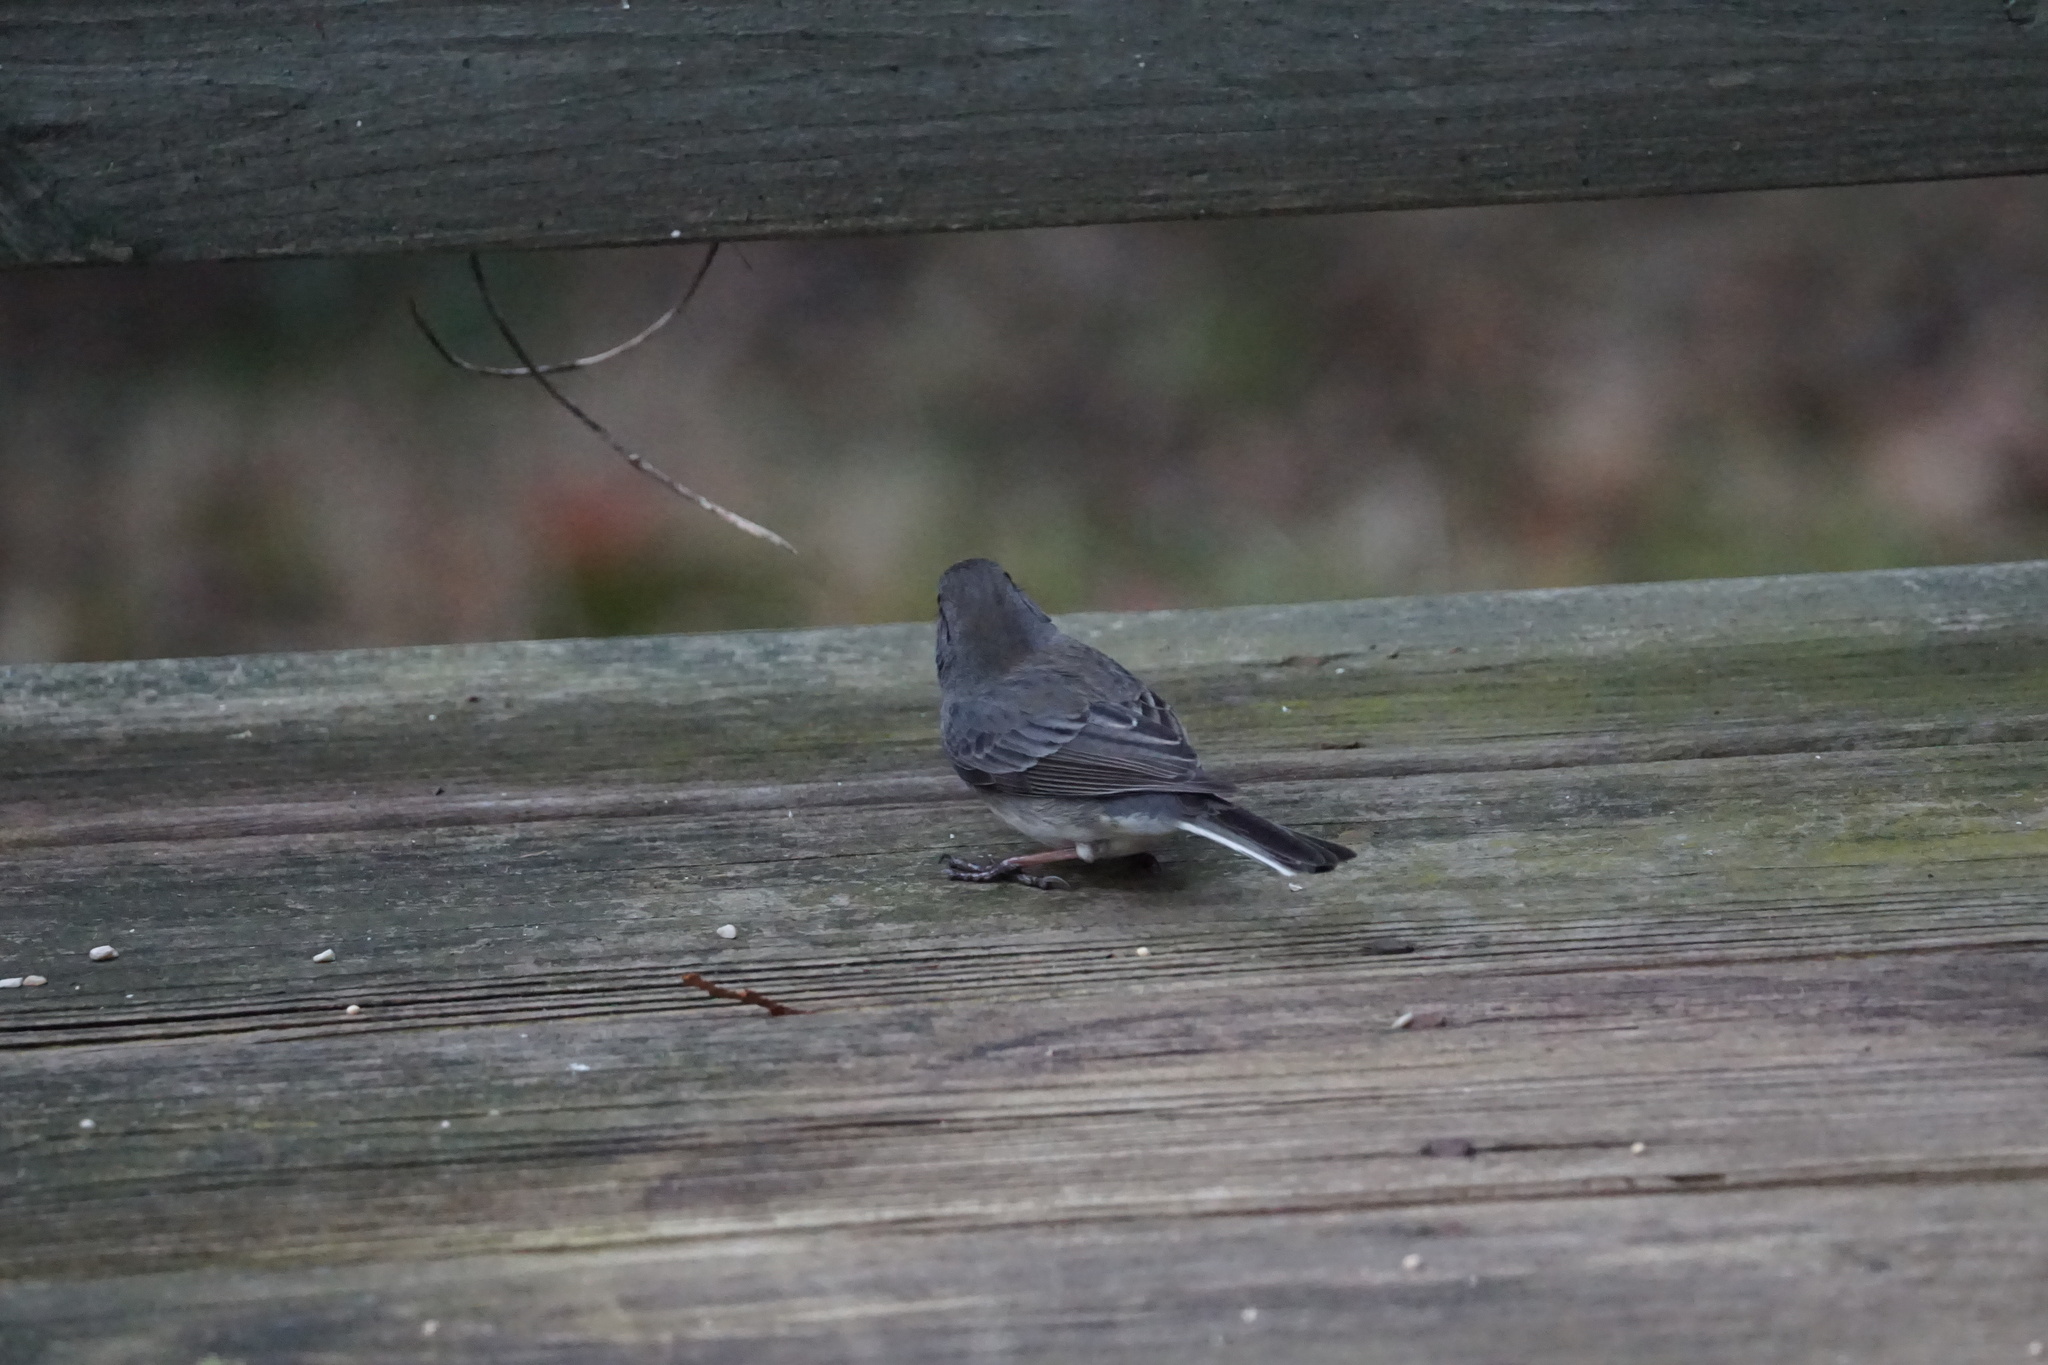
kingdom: Animalia
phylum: Chordata
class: Aves
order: Passeriformes
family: Passerellidae
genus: Junco
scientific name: Junco hyemalis
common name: Dark-eyed junco
